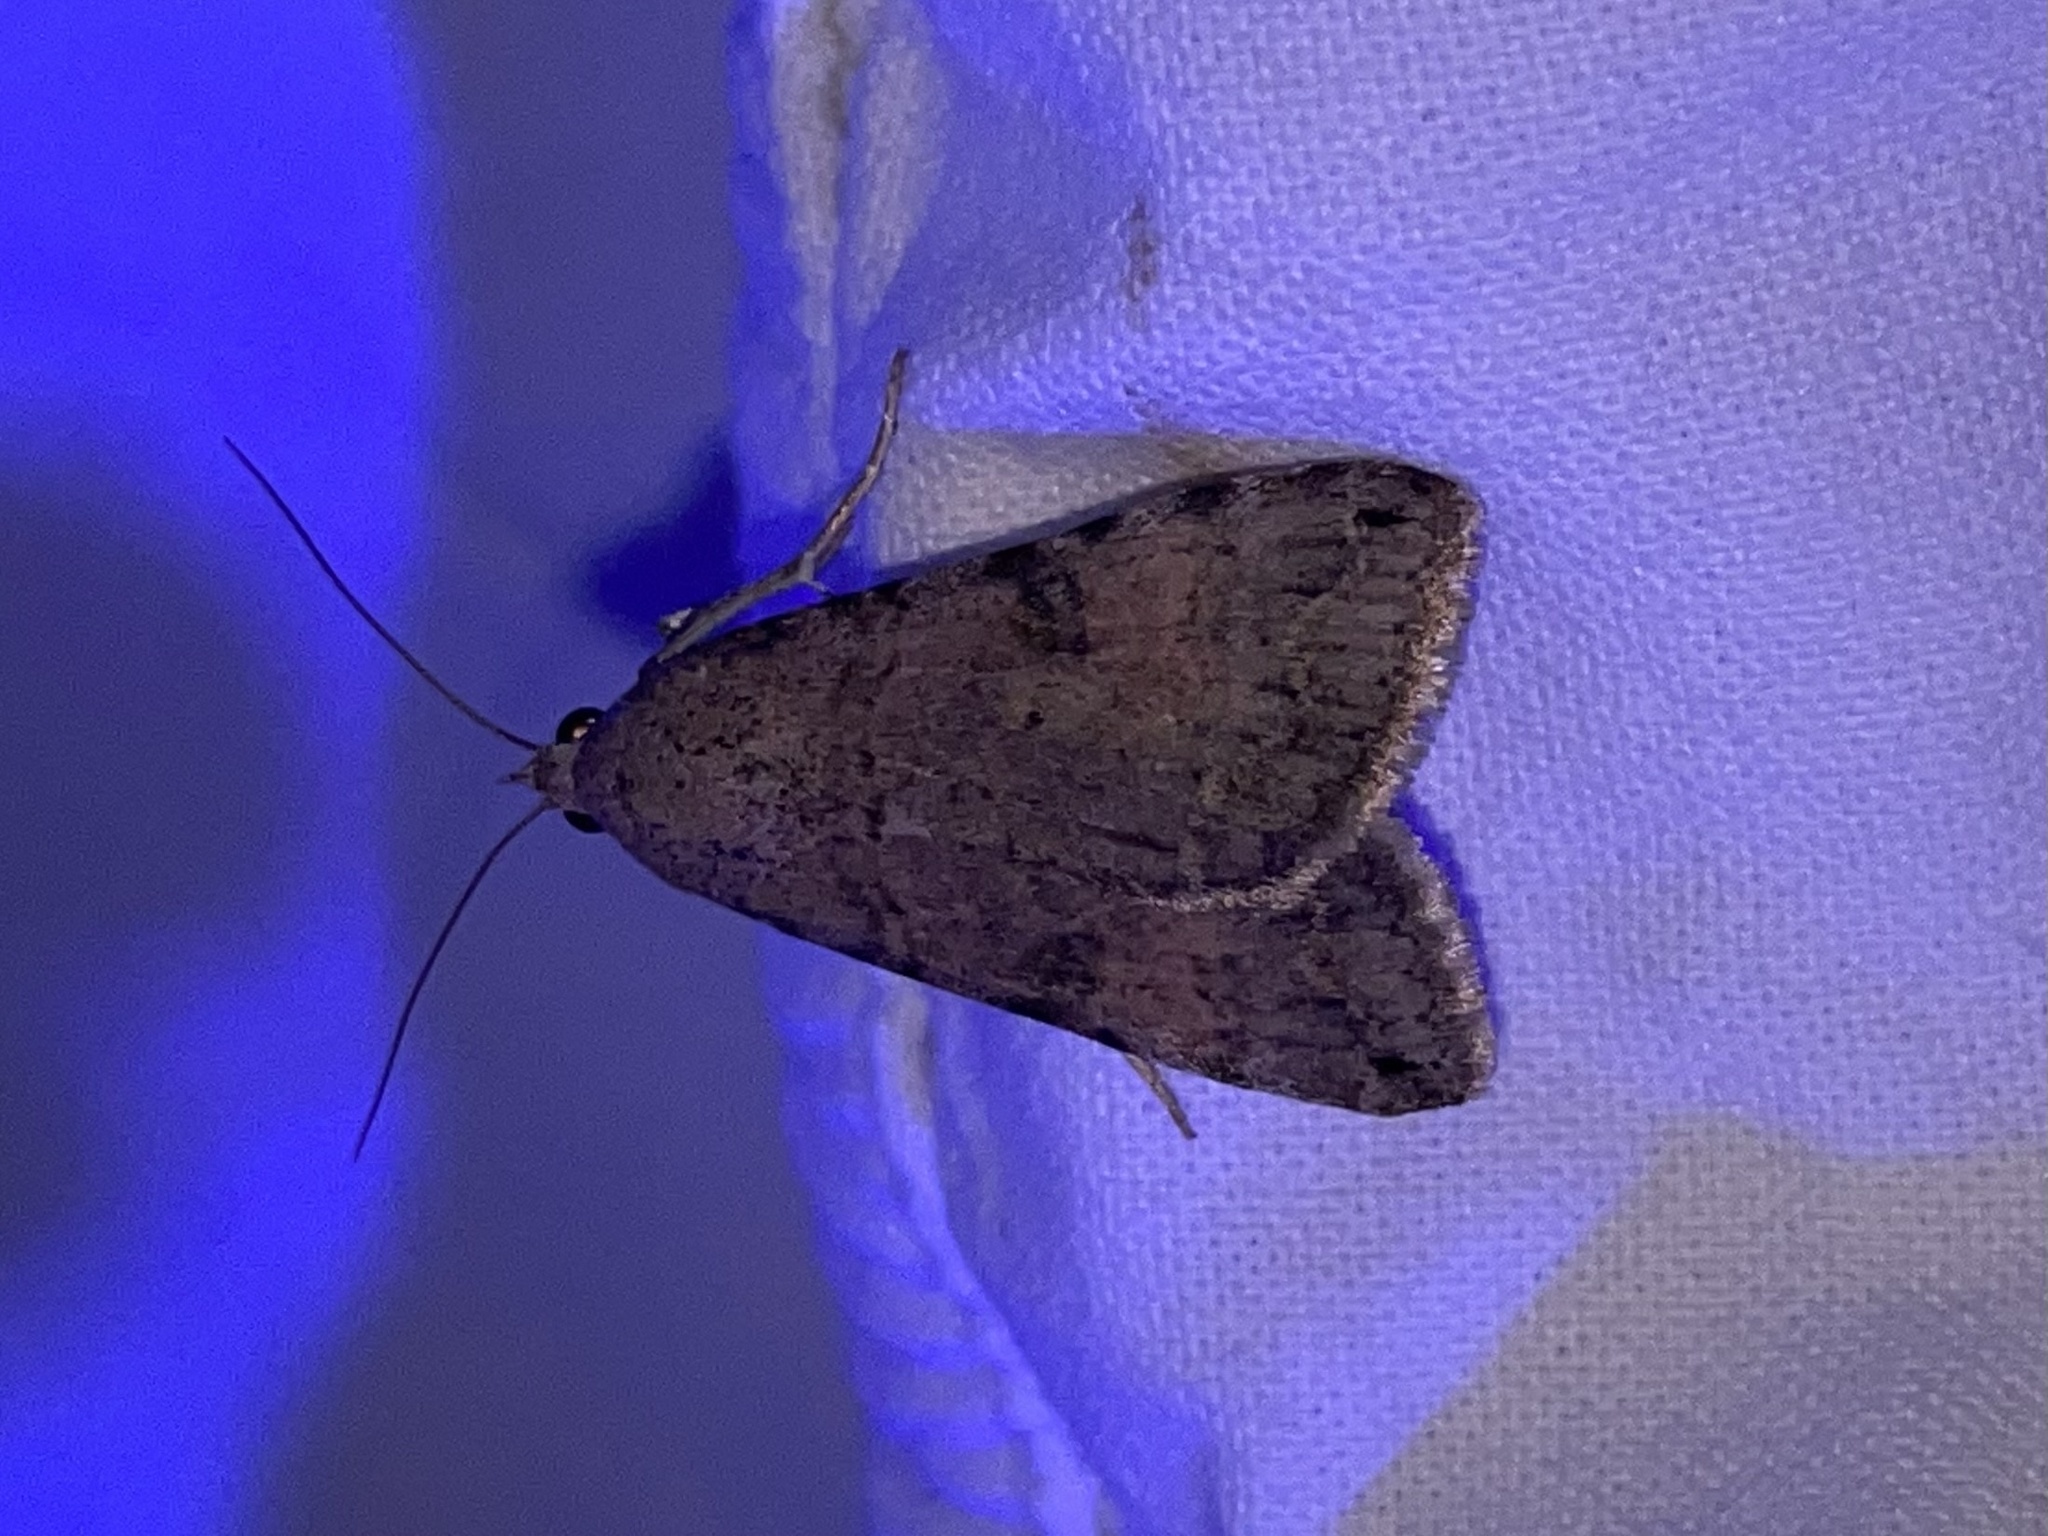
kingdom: Animalia
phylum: Arthropoda
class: Insecta
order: Lepidoptera
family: Erebidae
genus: Bulia
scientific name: Bulia deducta
